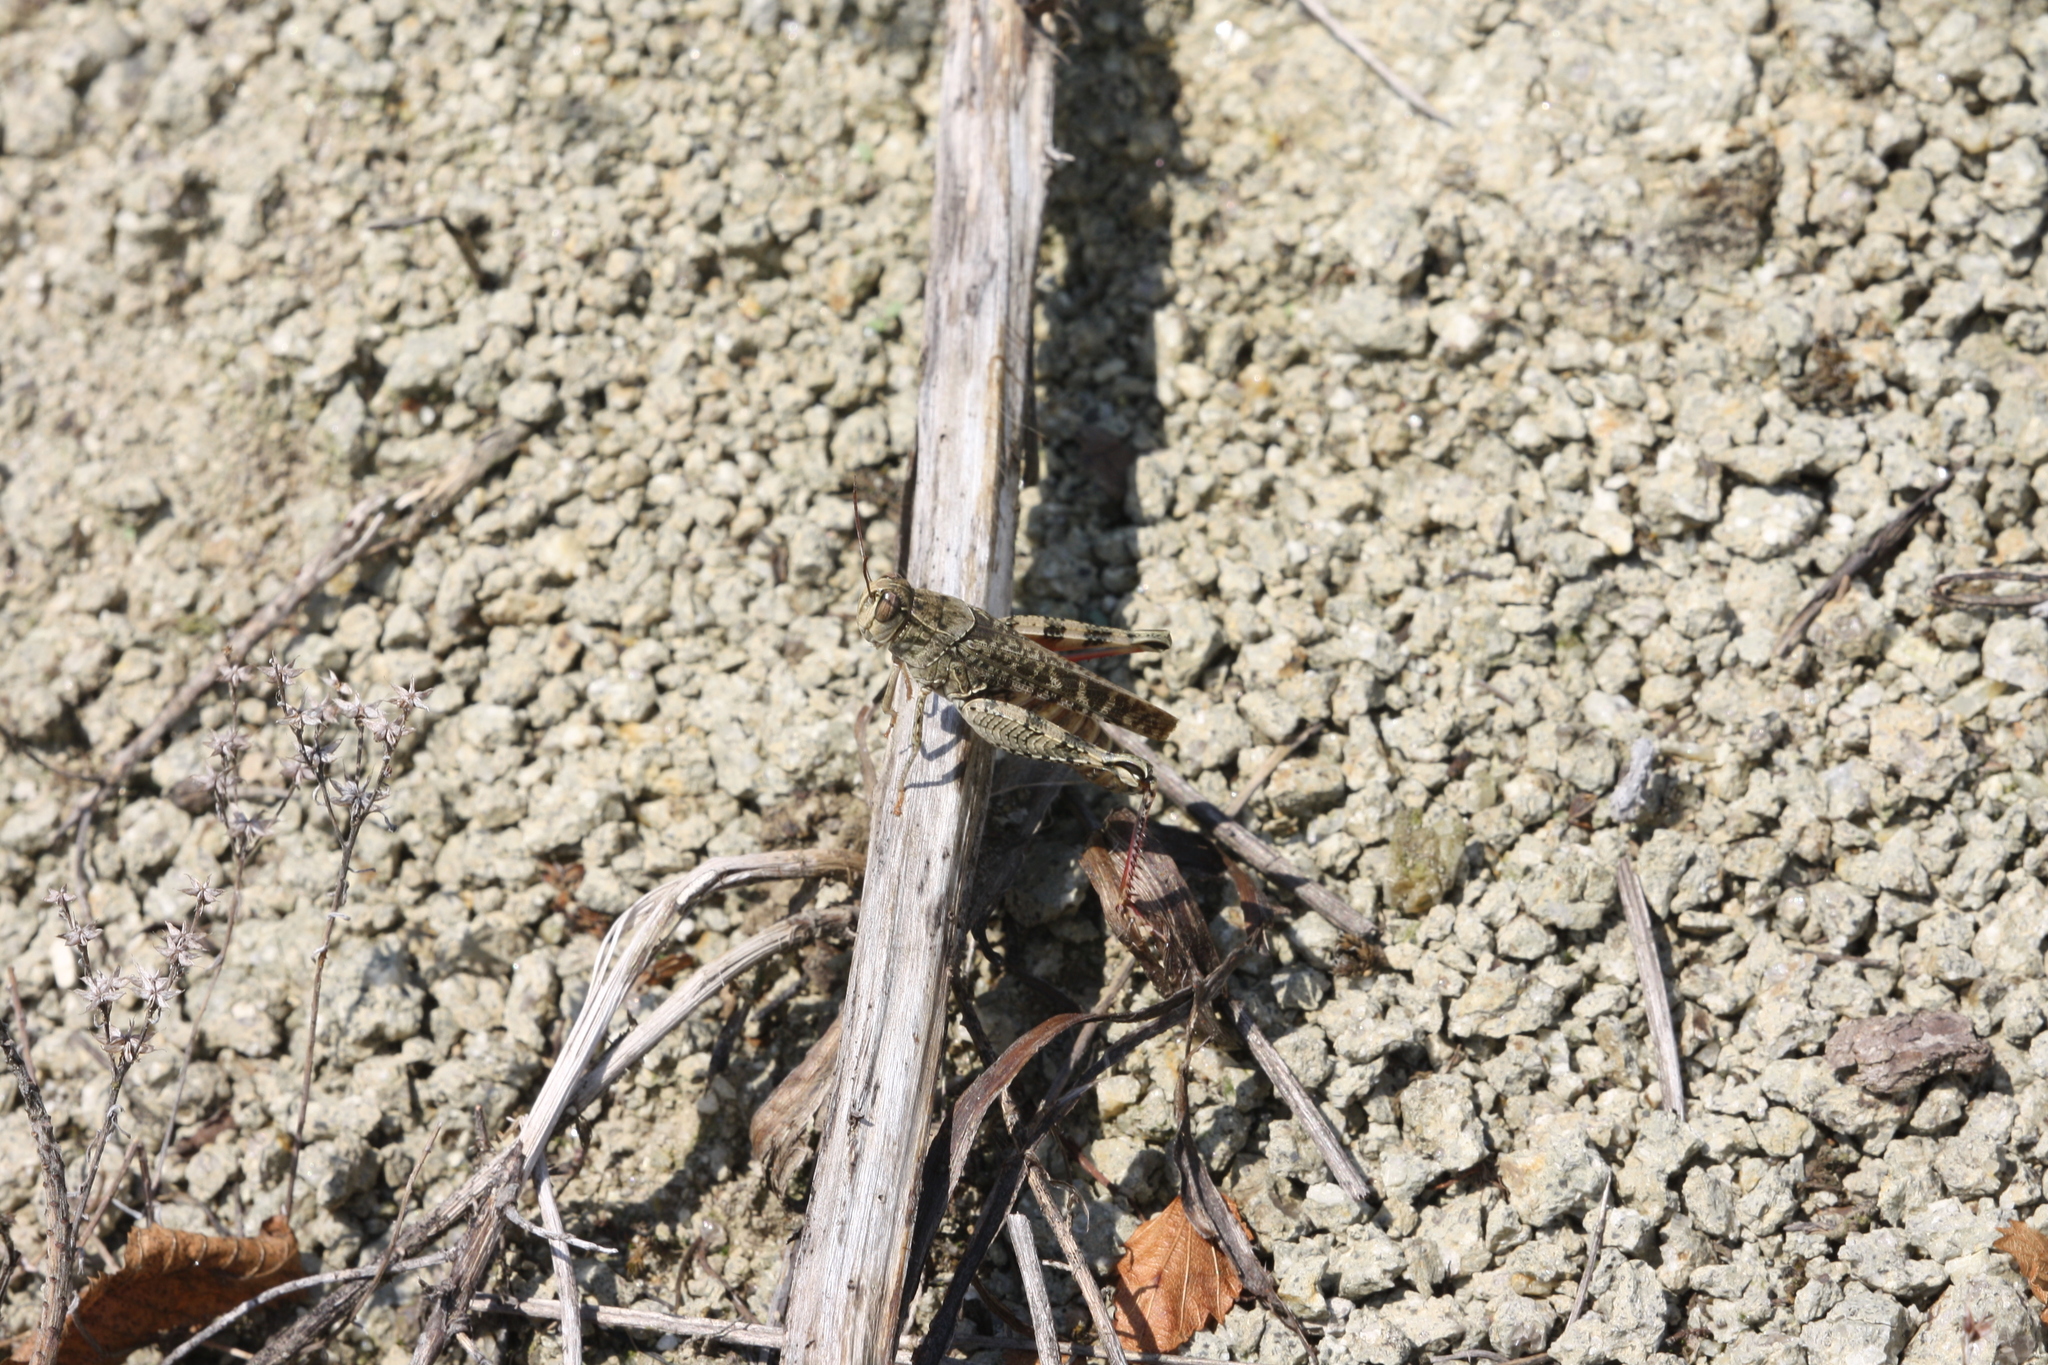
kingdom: Animalia
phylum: Arthropoda
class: Insecta
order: Orthoptera
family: Acrididae
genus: Calliptamus
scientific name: Calliptamus italicus
